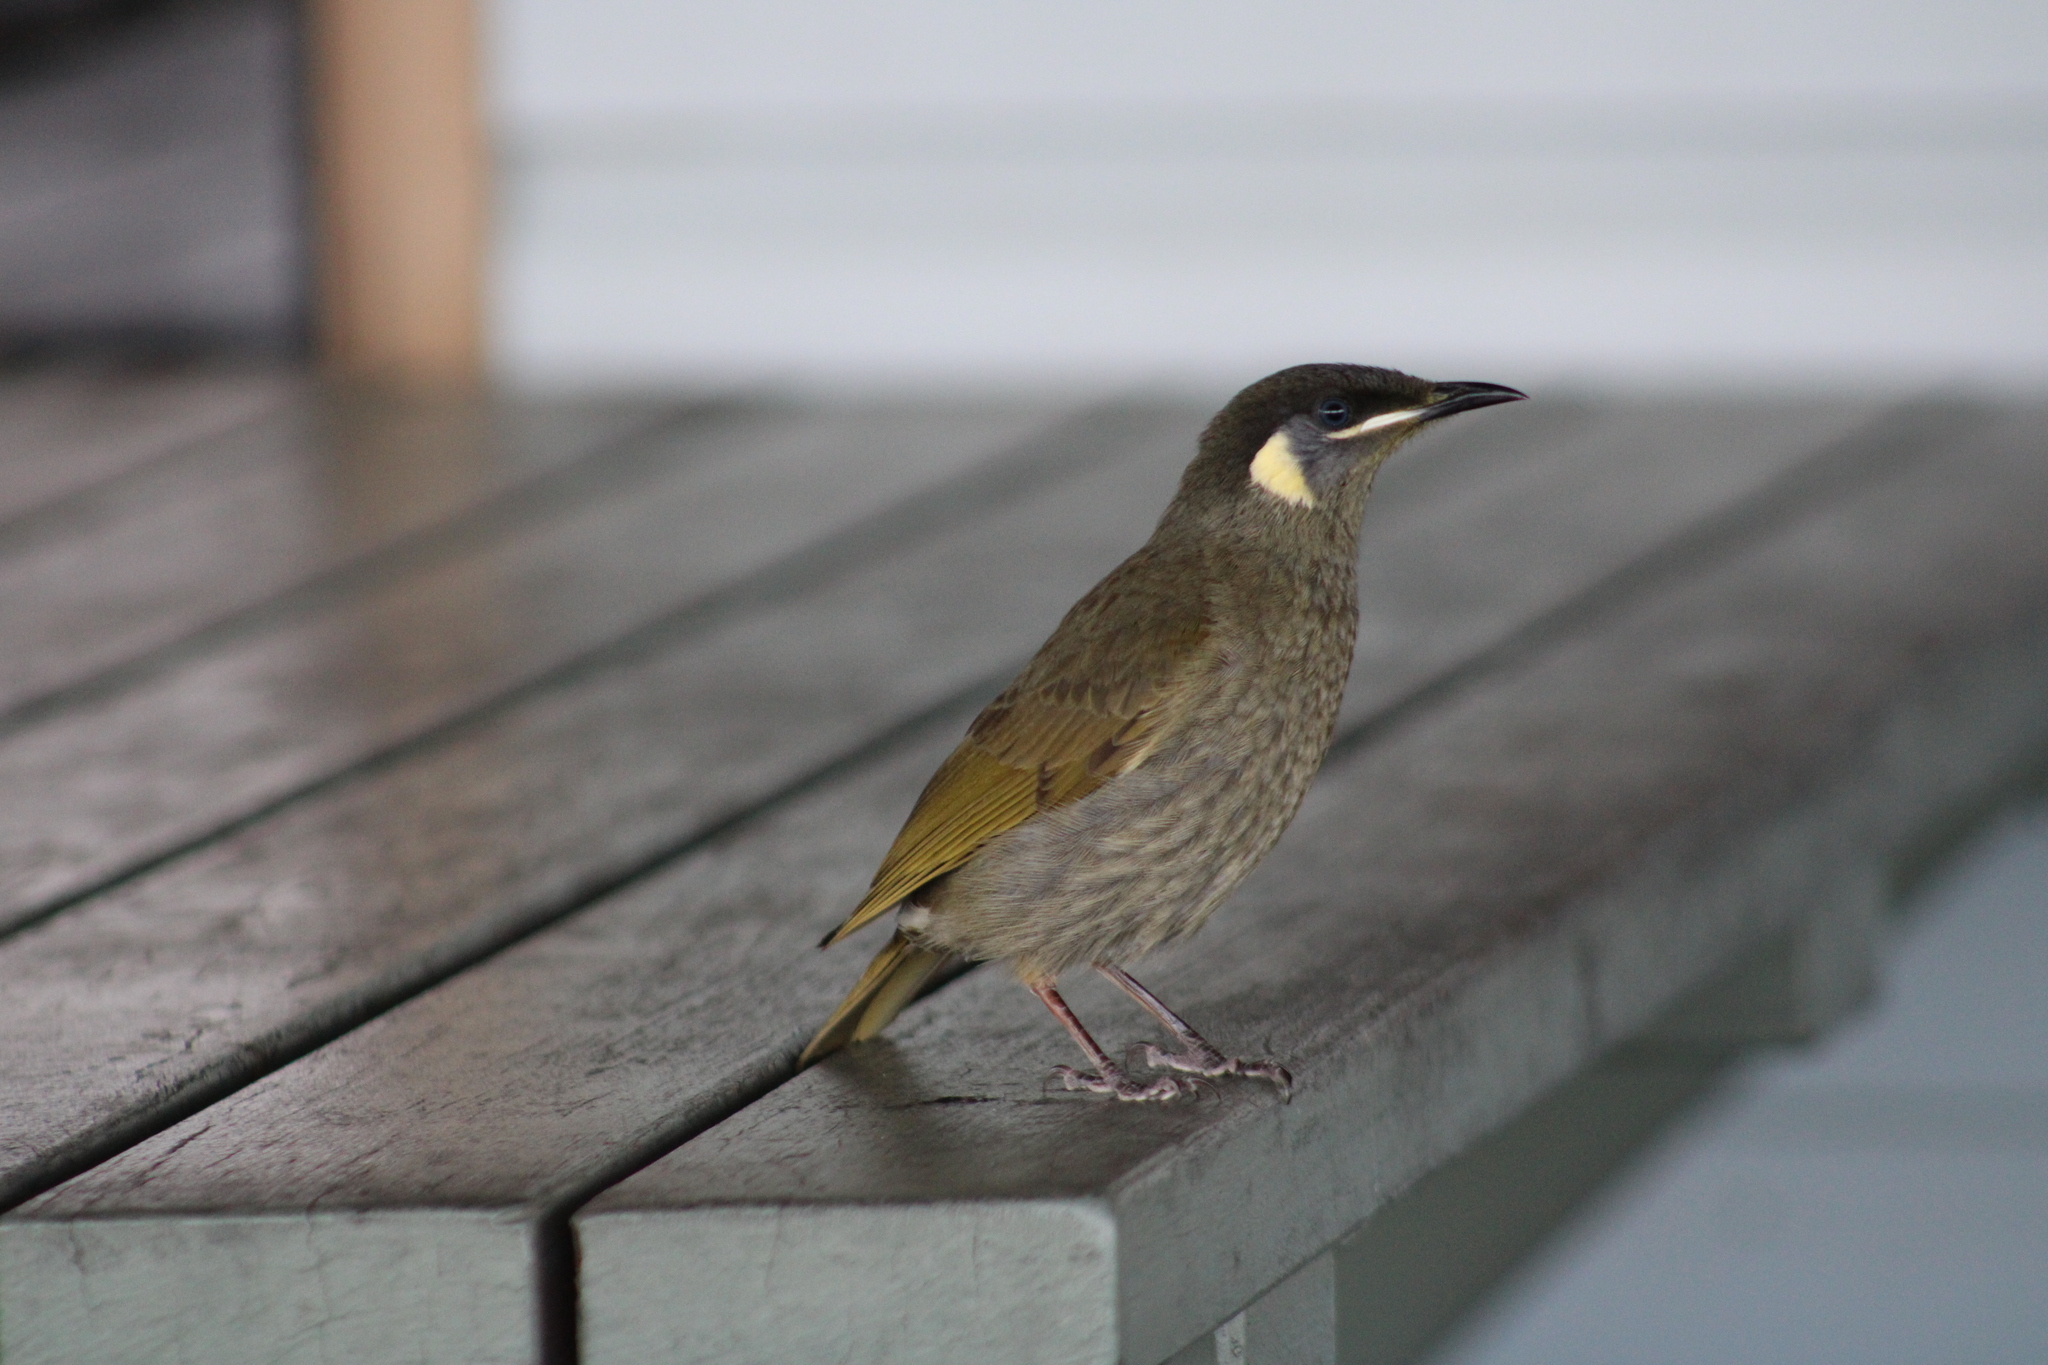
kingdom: Animalia
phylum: Chordata
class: Aves
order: Passeriformes
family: Meliphagidae
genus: Meliphaga
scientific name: Meliphaga lewinii
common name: Lewin's honeyeater
